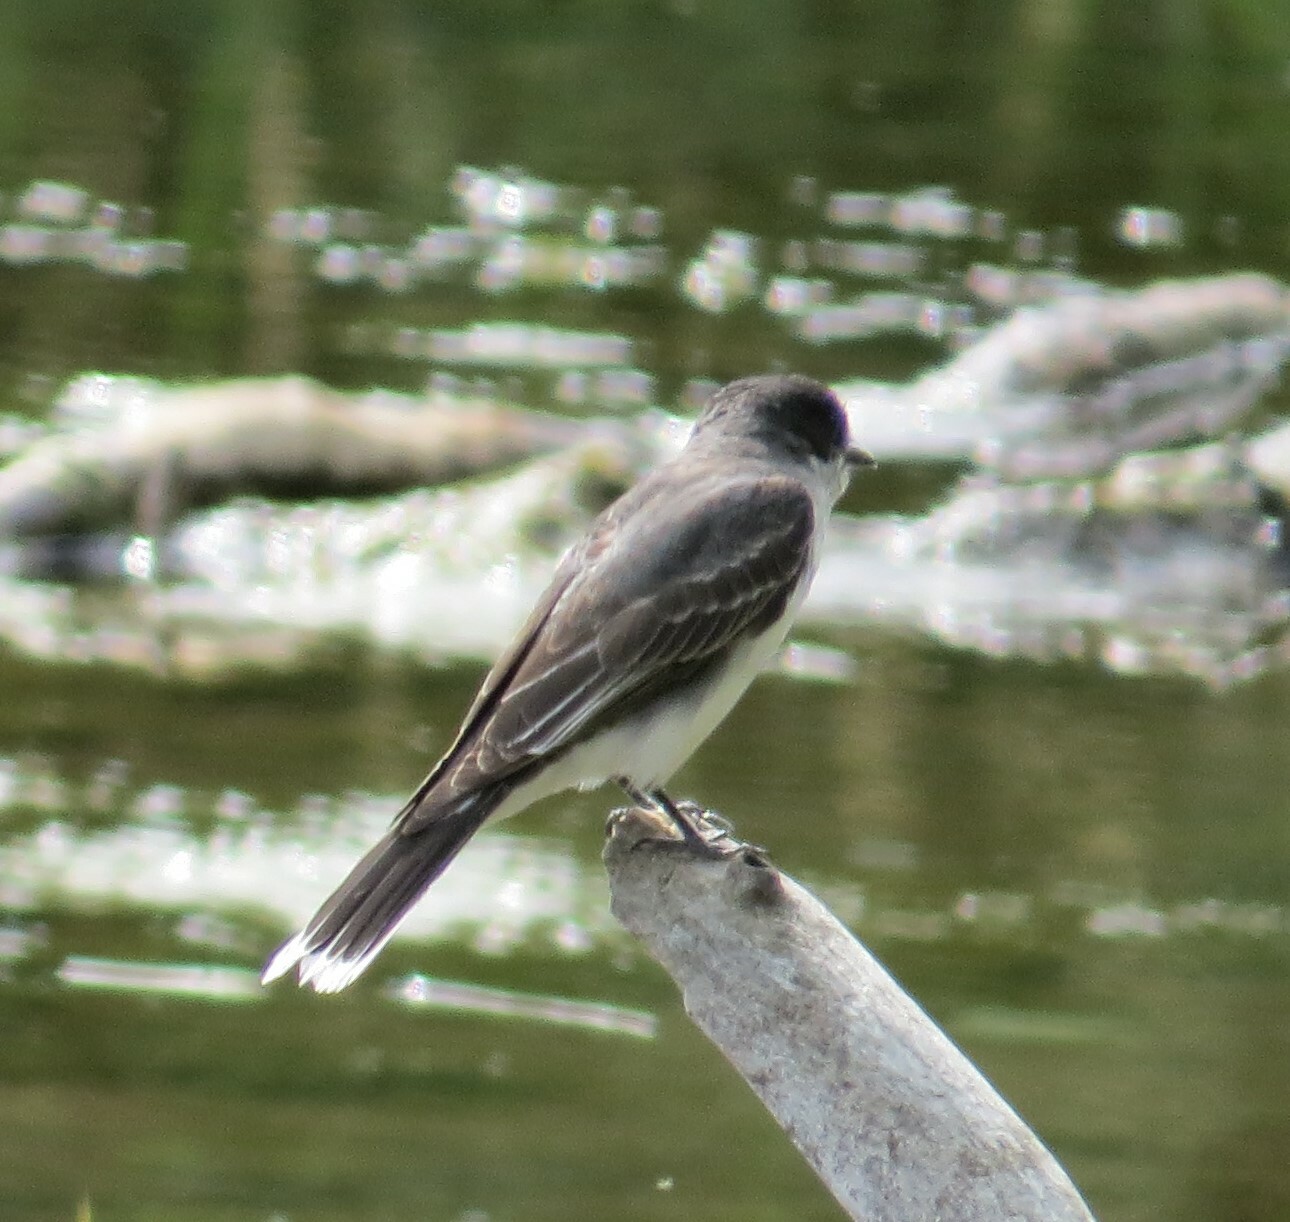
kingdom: Animalia
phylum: Chordata
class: Aves
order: Passeriformes
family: Tyrannidae
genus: Tyrannus
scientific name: Tyrannus tyrannus
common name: Eastern kingbird
